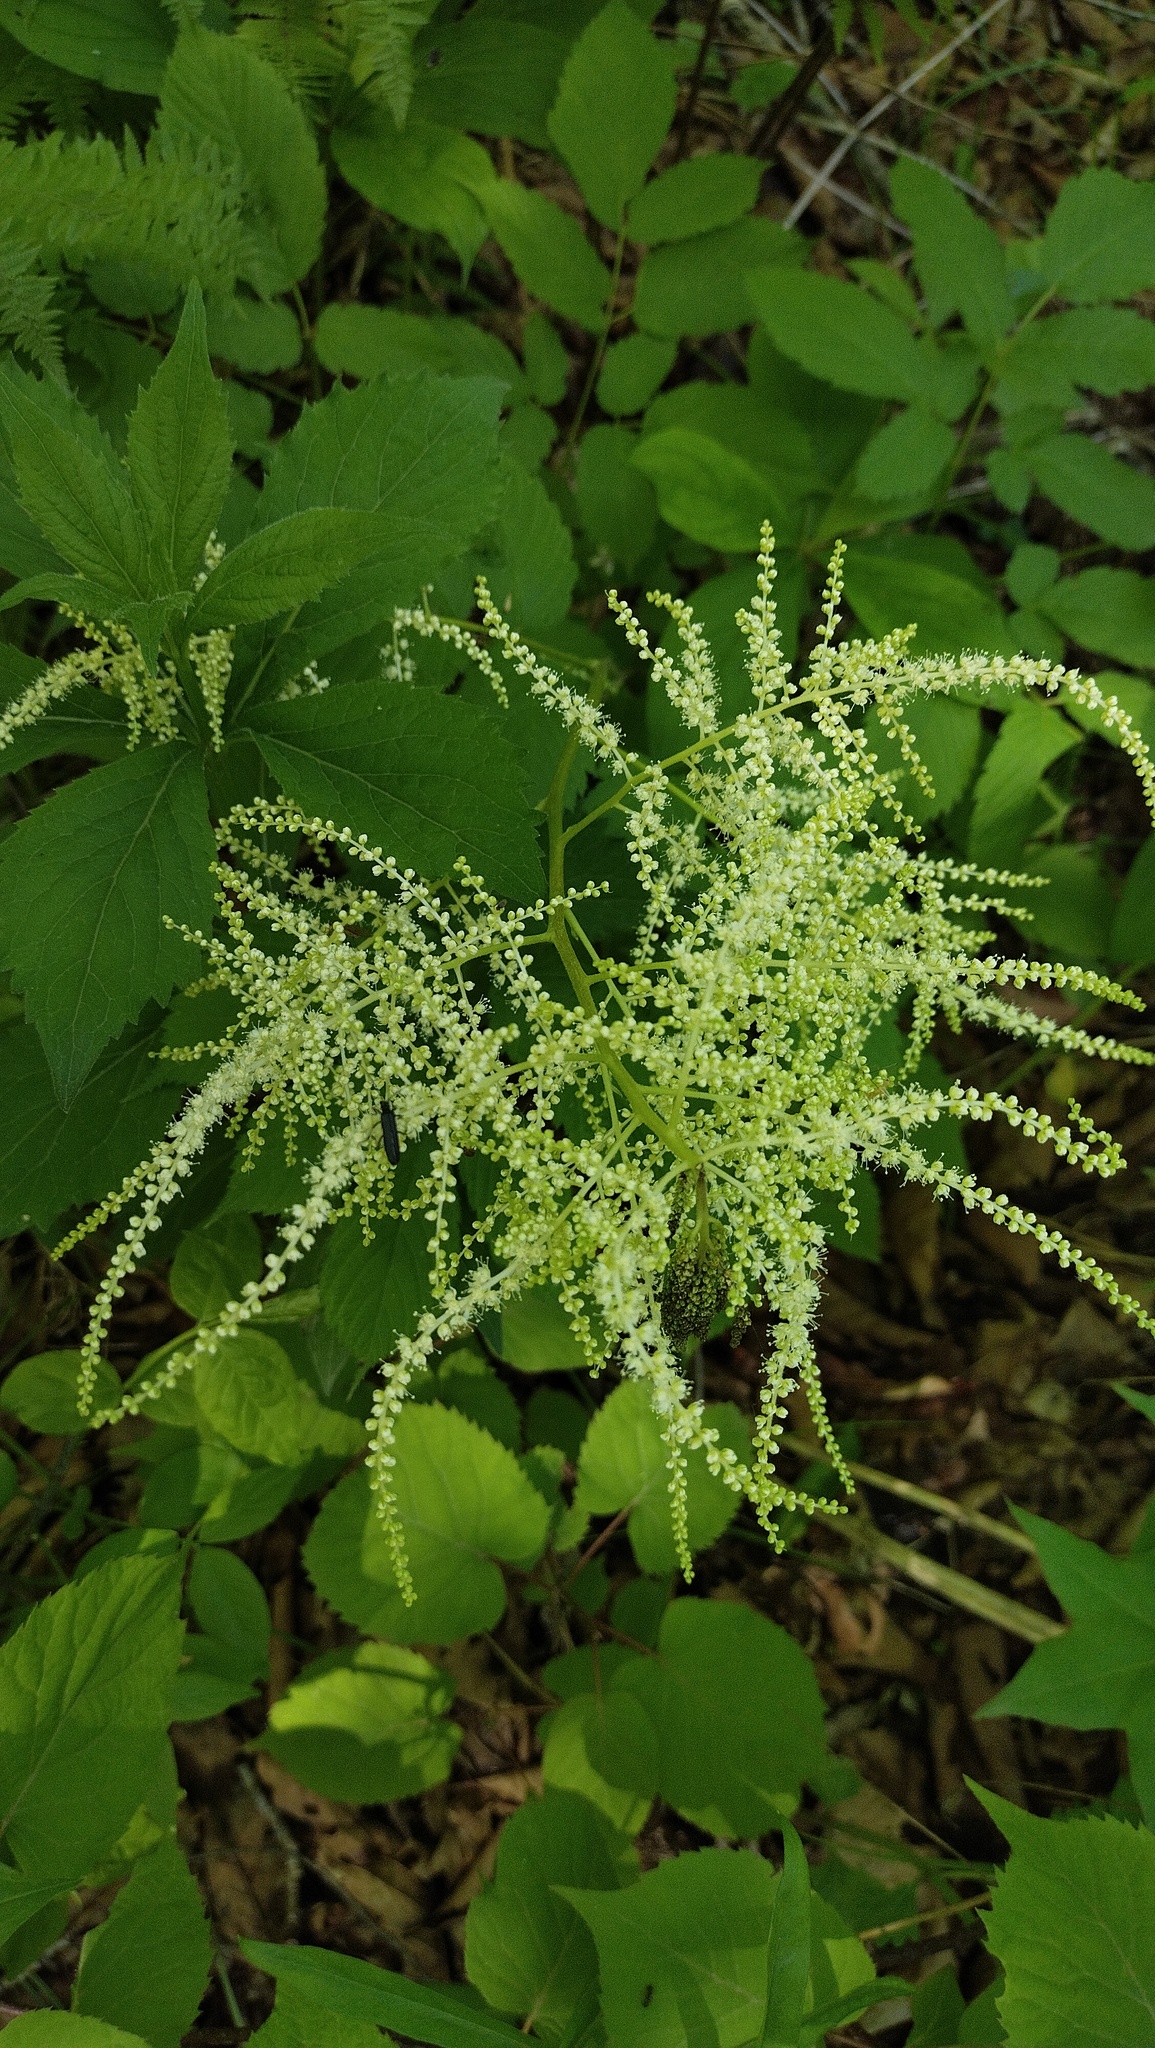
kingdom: Plantae
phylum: Tracheophyta
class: Magnoliopsida
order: Rosales
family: Rosaceae
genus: Aruncus
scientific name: Aruncus dioicus
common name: Buck's-beard
